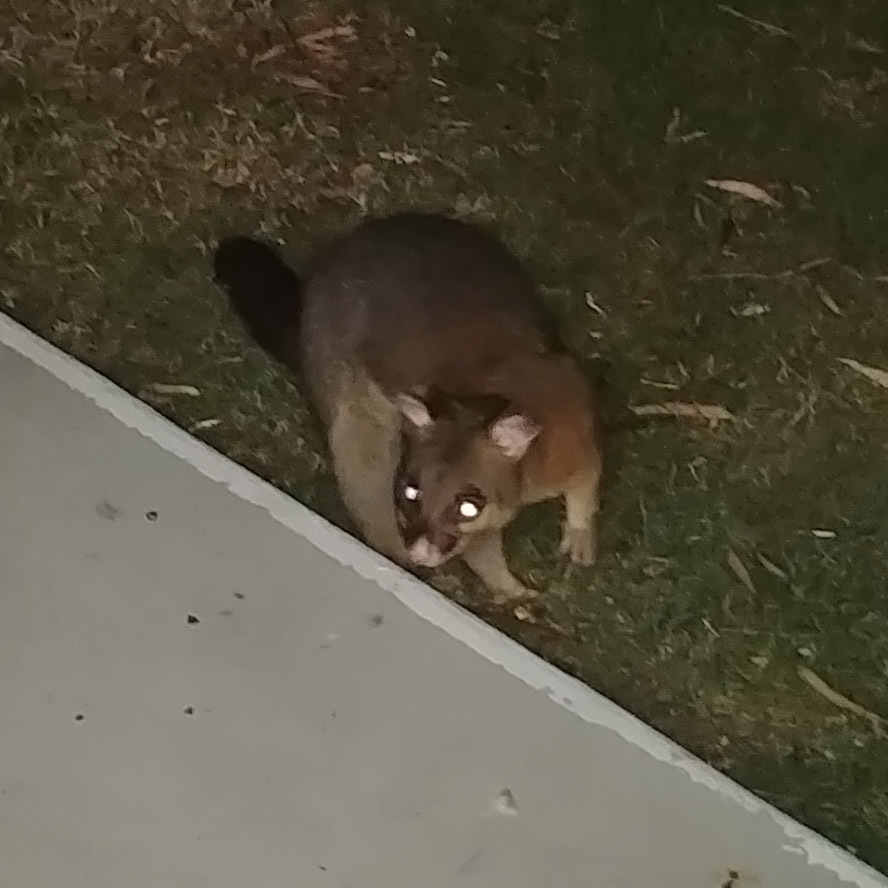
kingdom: Animalia
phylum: Chordata
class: Mammalia
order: Diprotodontia
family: Phalangeridae
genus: Trichosurus
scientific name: Trichosurus vulpecula
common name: Common brushtail
